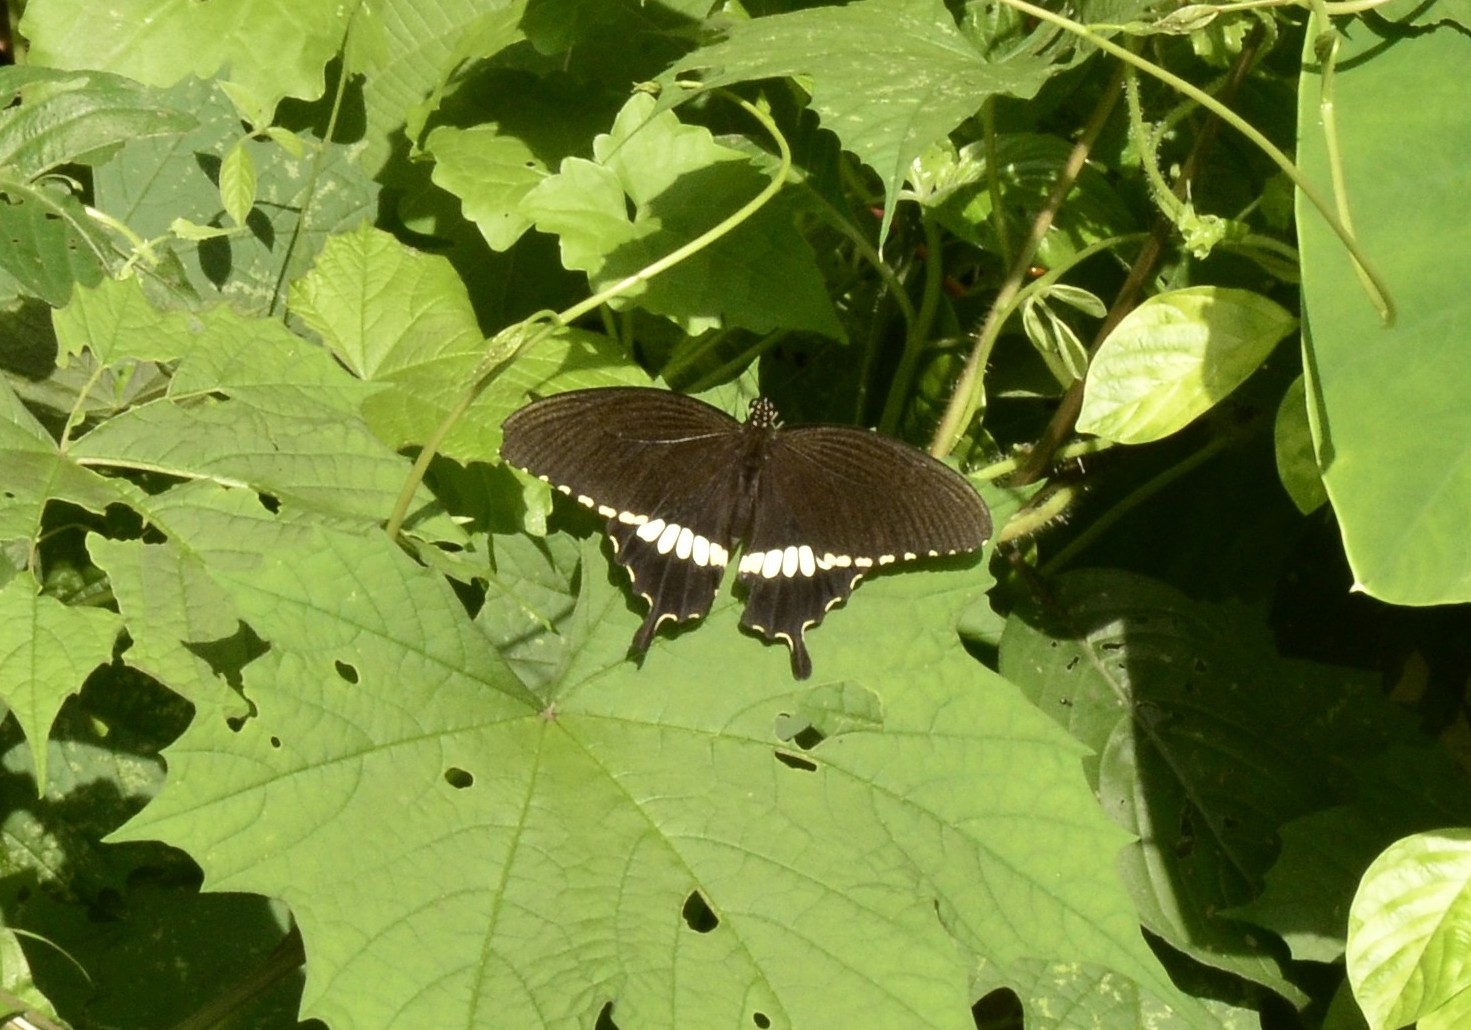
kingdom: Animalia
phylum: Arthropoda
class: Insecta
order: Lepidoptera
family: Papilionidae
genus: Papilio
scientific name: Papilio polytes
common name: Common mormon
